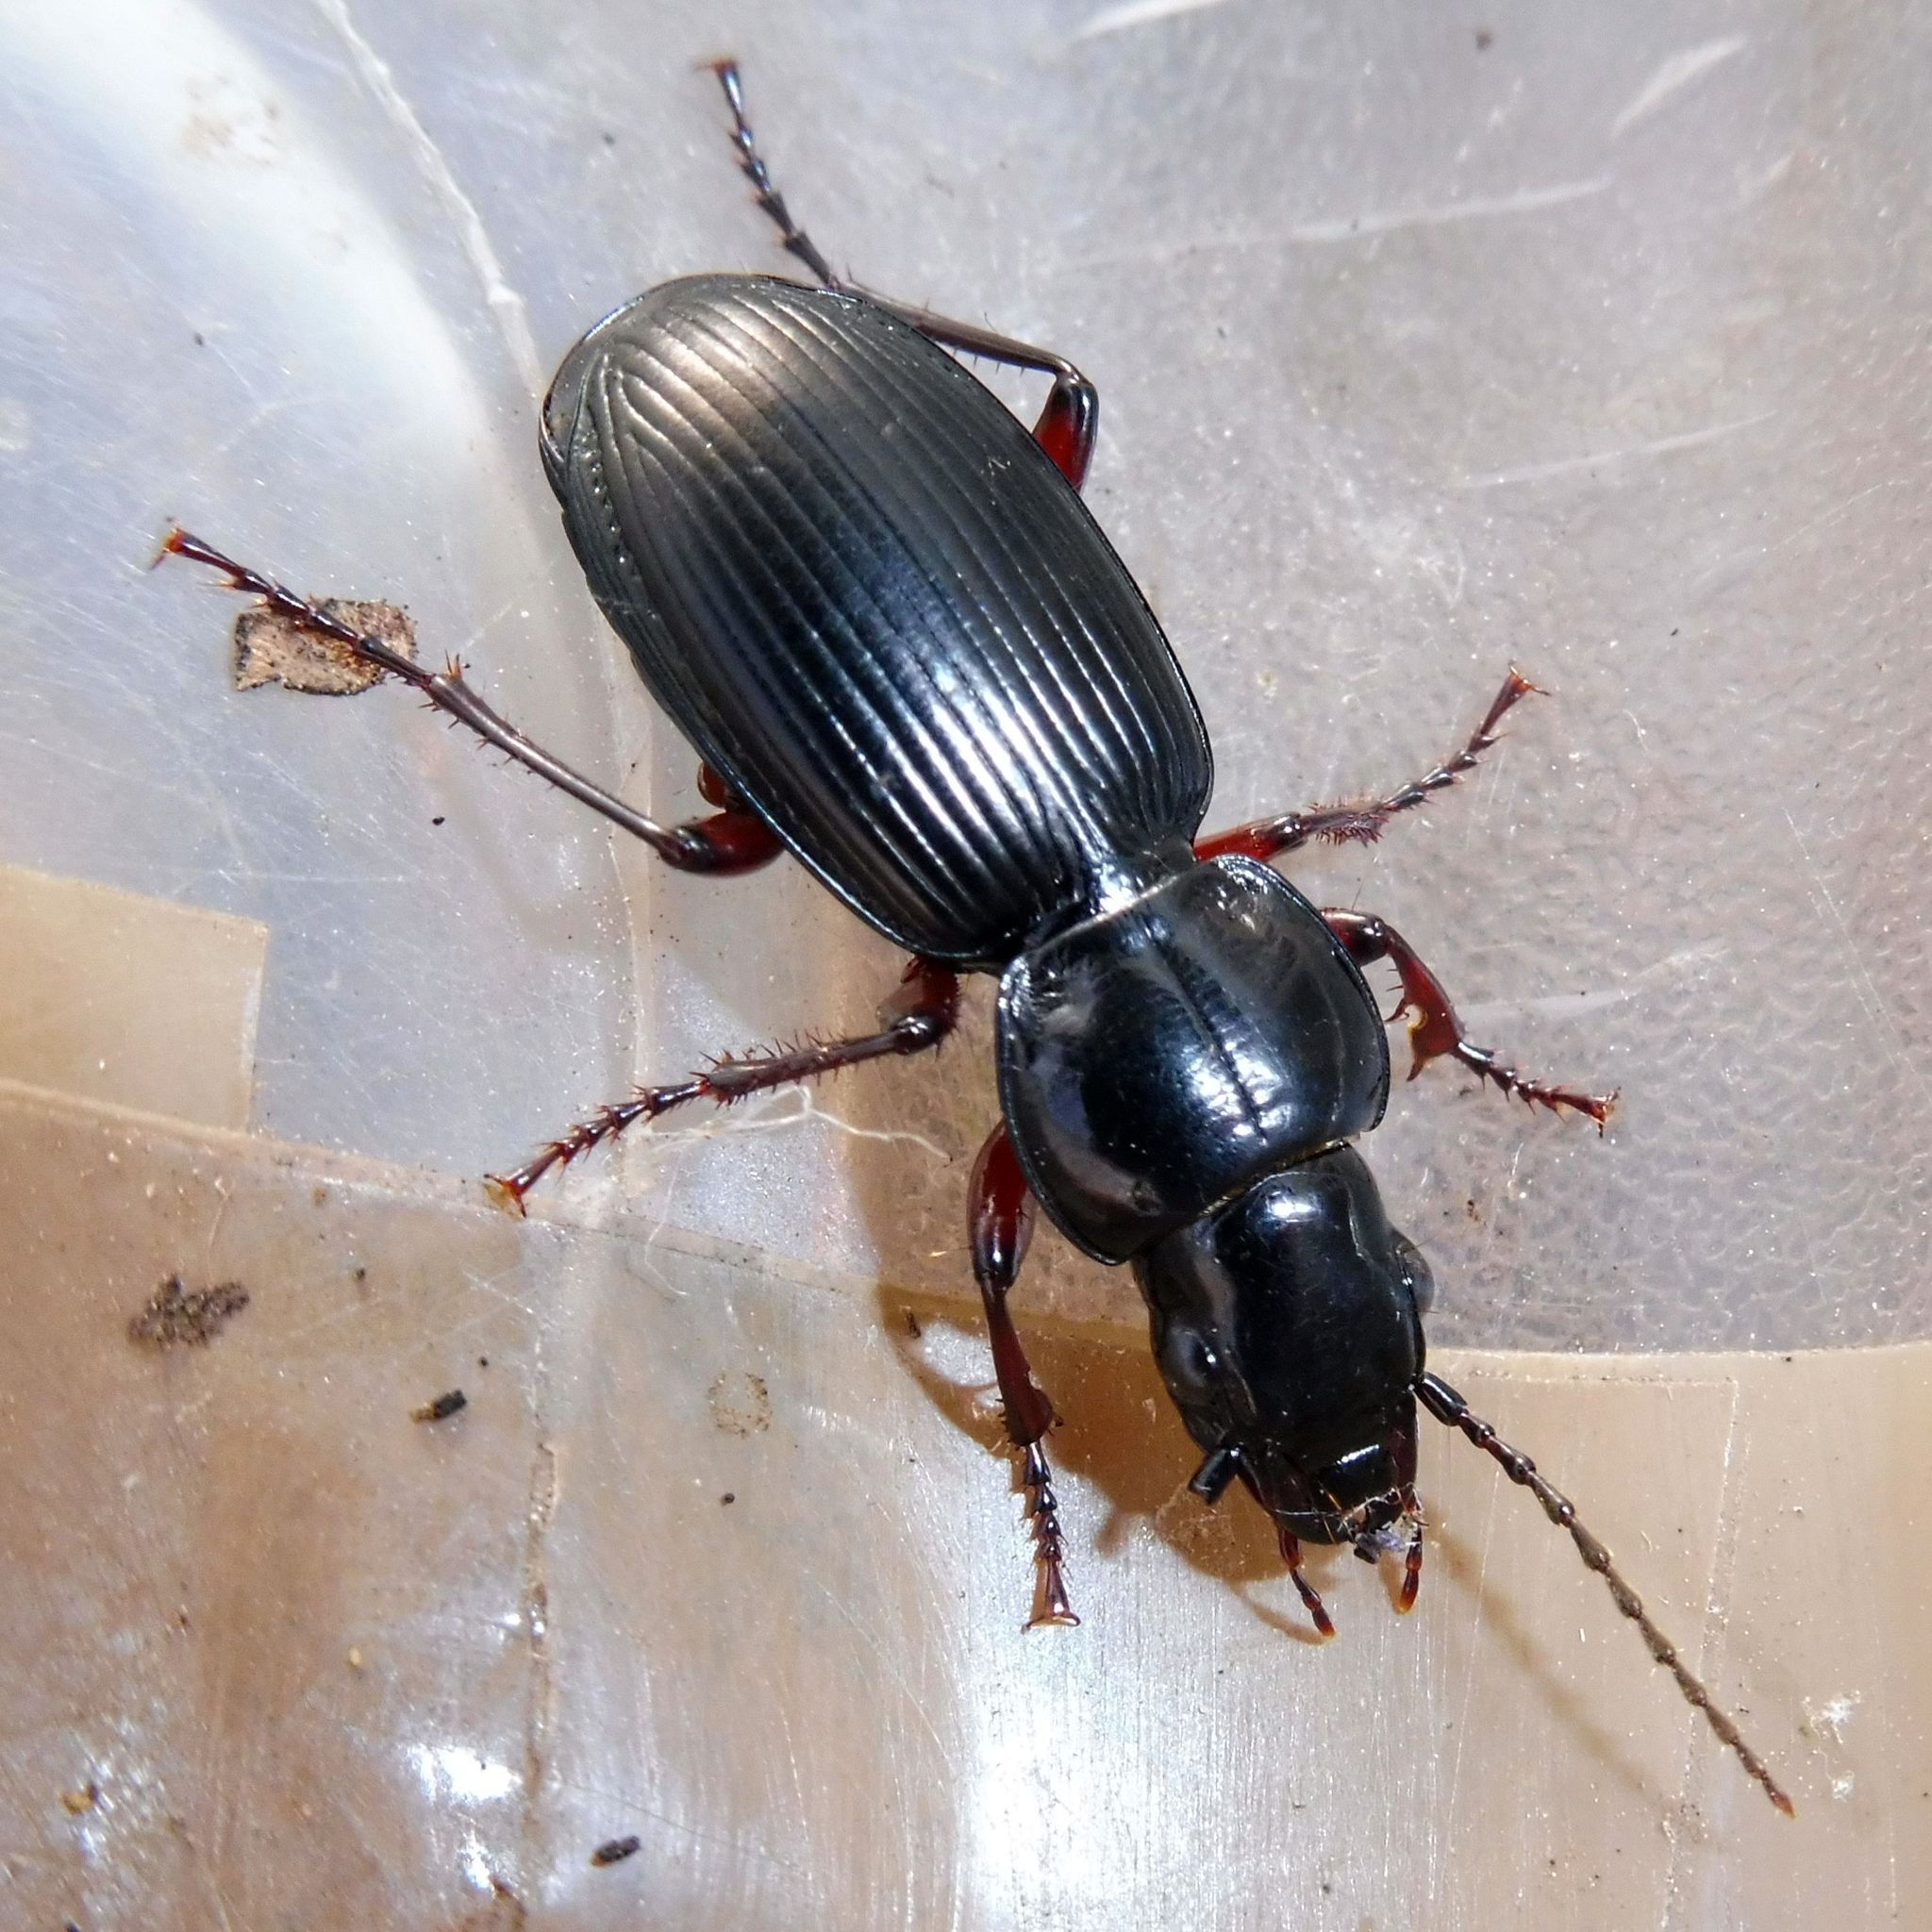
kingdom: Animalia
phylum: Arthropoda
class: Insecta
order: Coleoptera
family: Carabidae
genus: Pterostichus
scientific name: Pterostichus madidus
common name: Black clock
